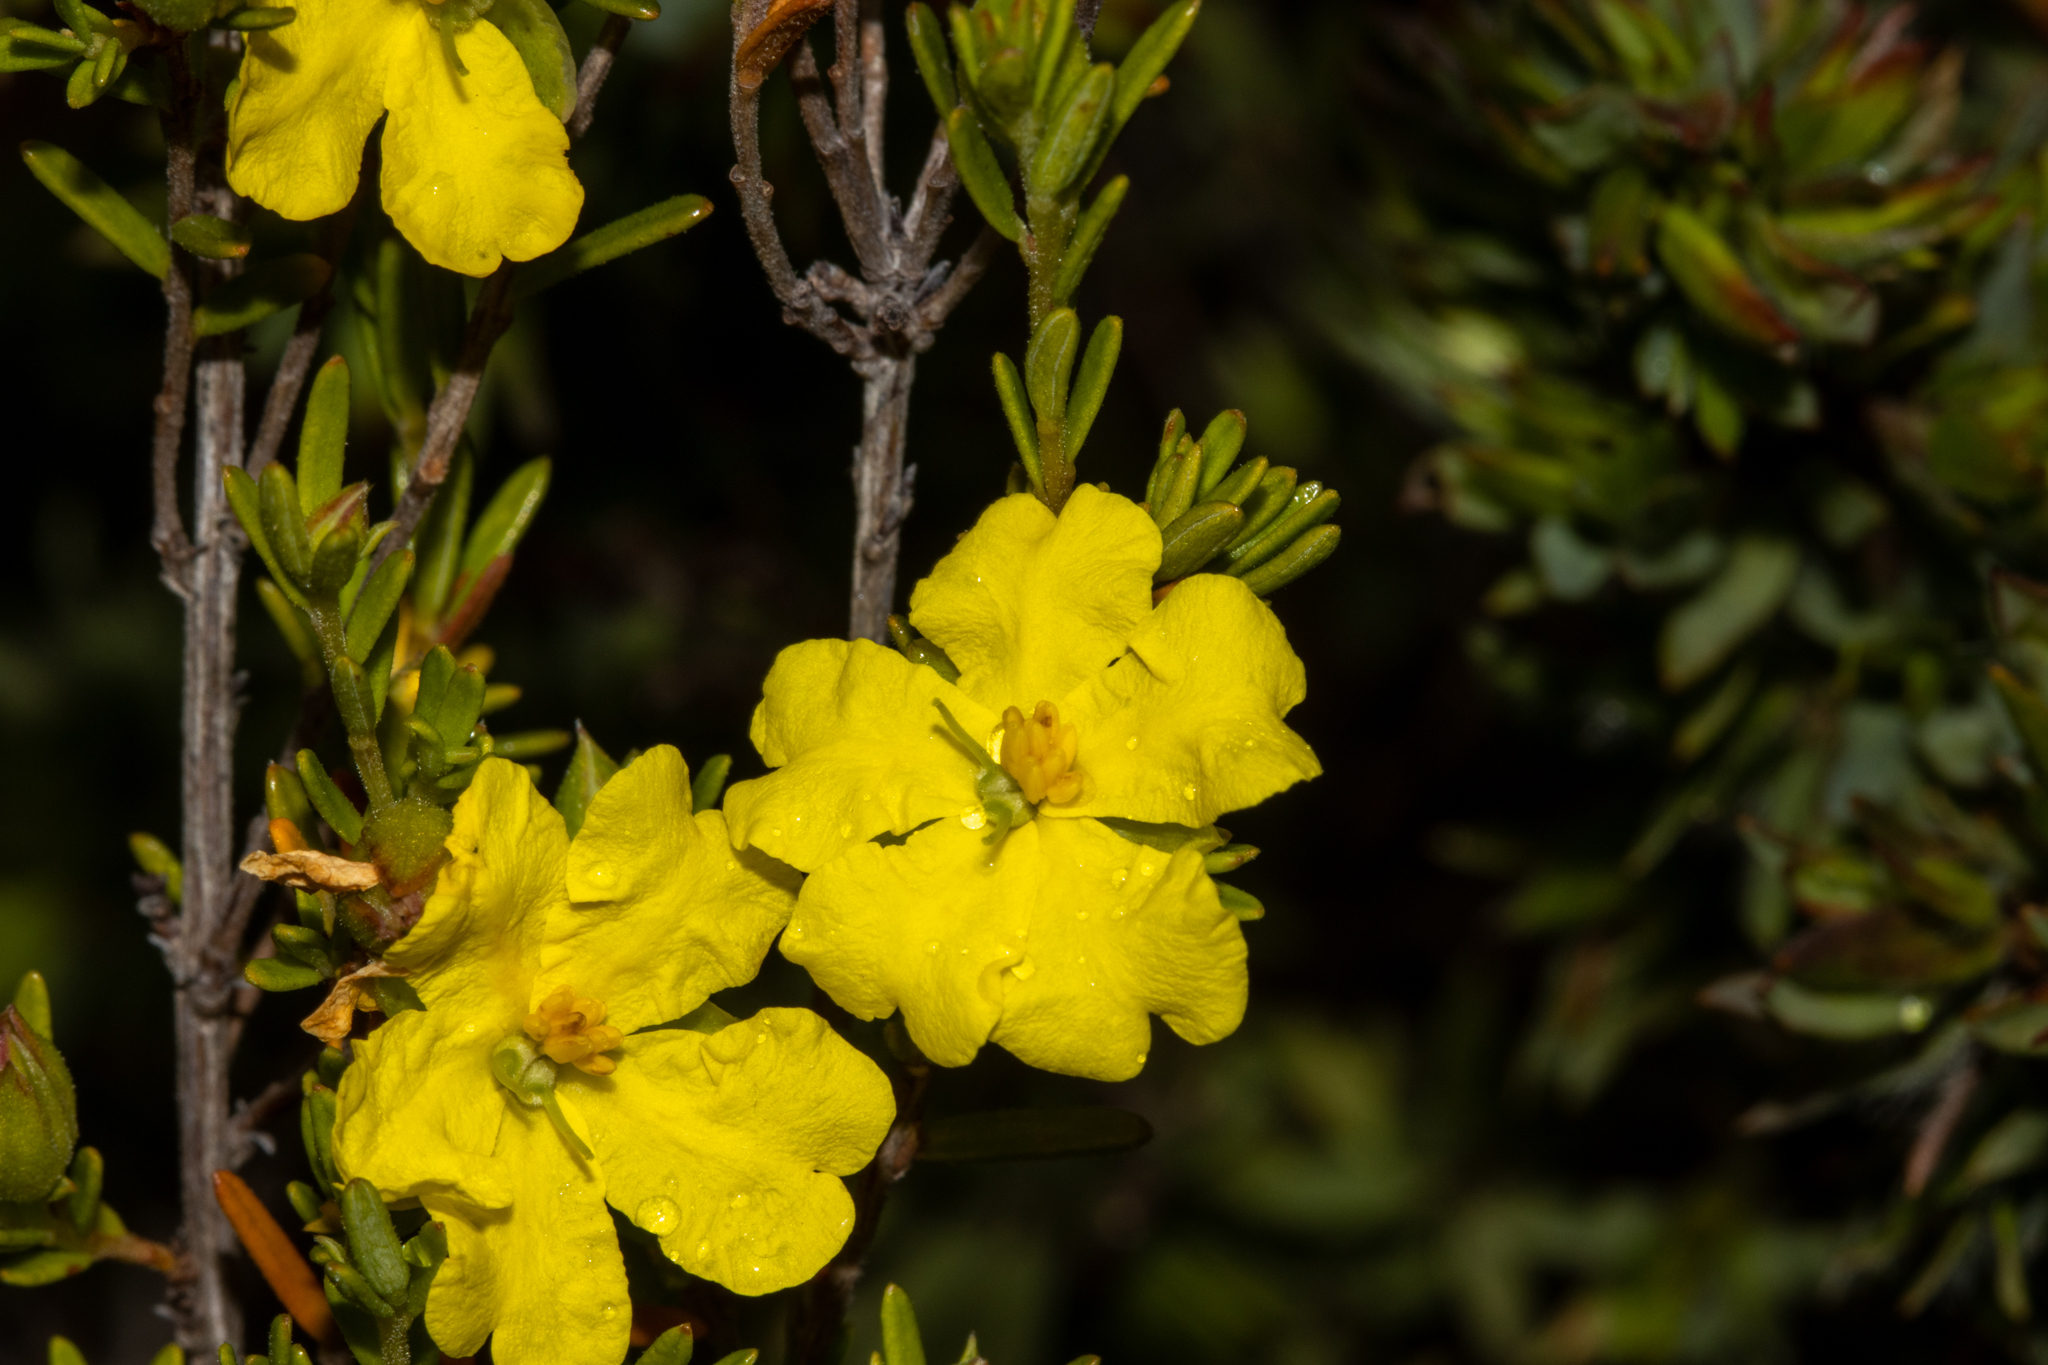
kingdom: Plantae
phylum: Tracheophyta
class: Magnoliopsida
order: Dilleniales
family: Dilleniaceae
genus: Hibbertia
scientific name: Hibbertia riparia
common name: Erect guinea-flower
